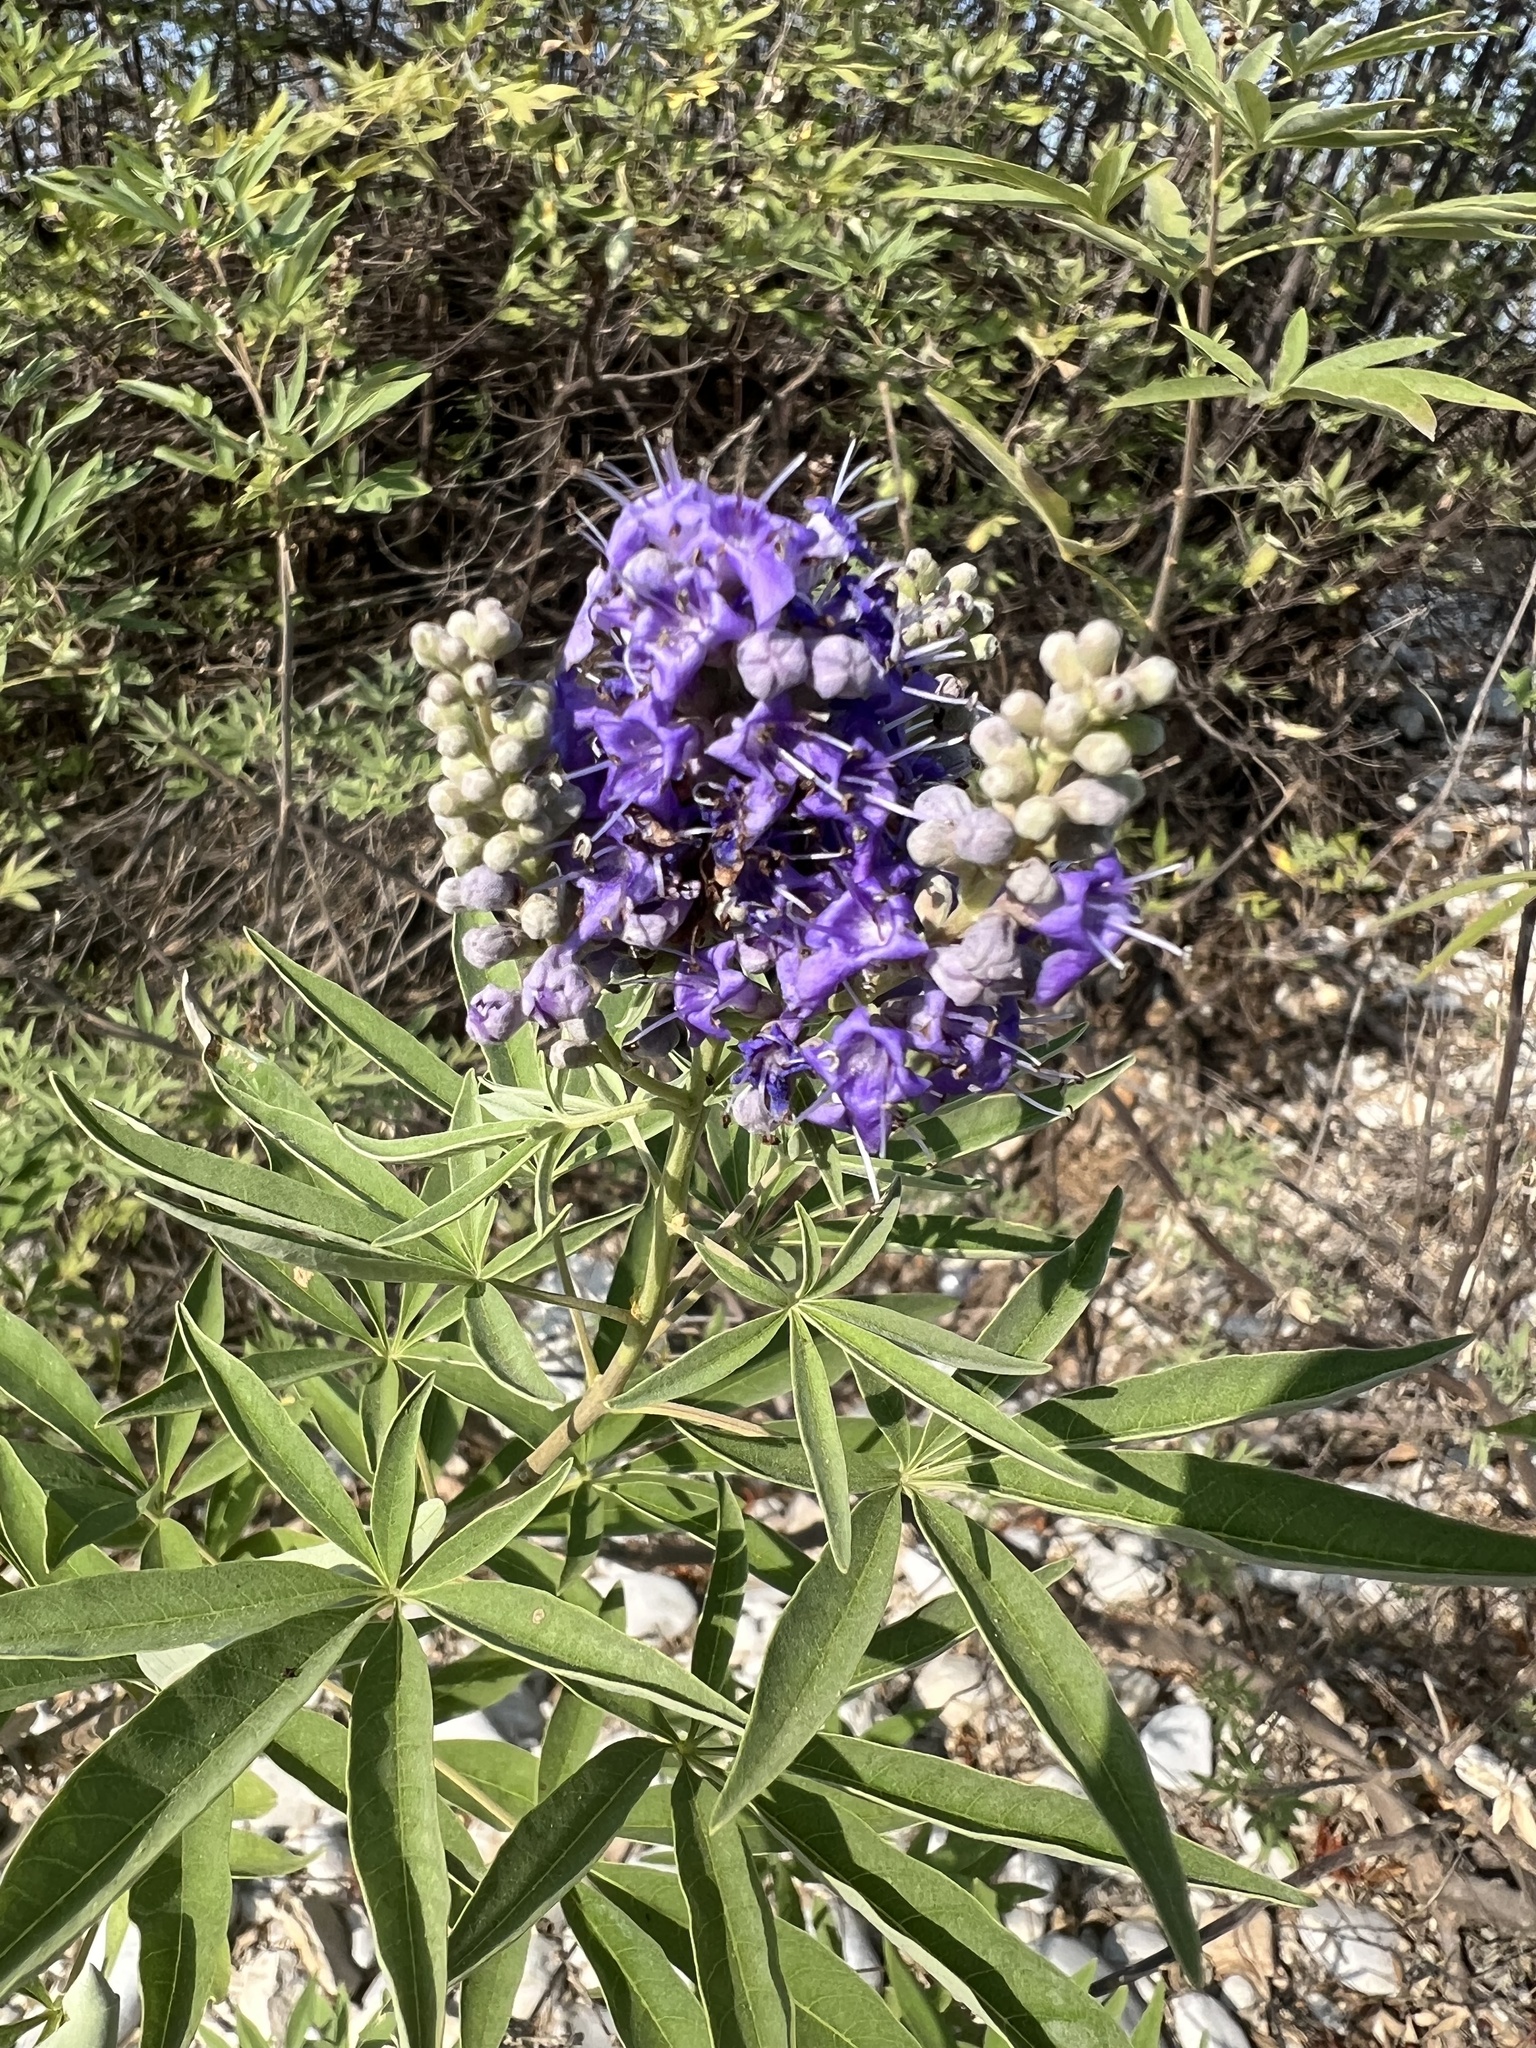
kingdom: Plantae
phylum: Tracheophyta
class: Magnoliopsida
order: Lamiales
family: Lamiaceae
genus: Vitex
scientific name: Vitex agnus-castus
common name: Chasteberry
